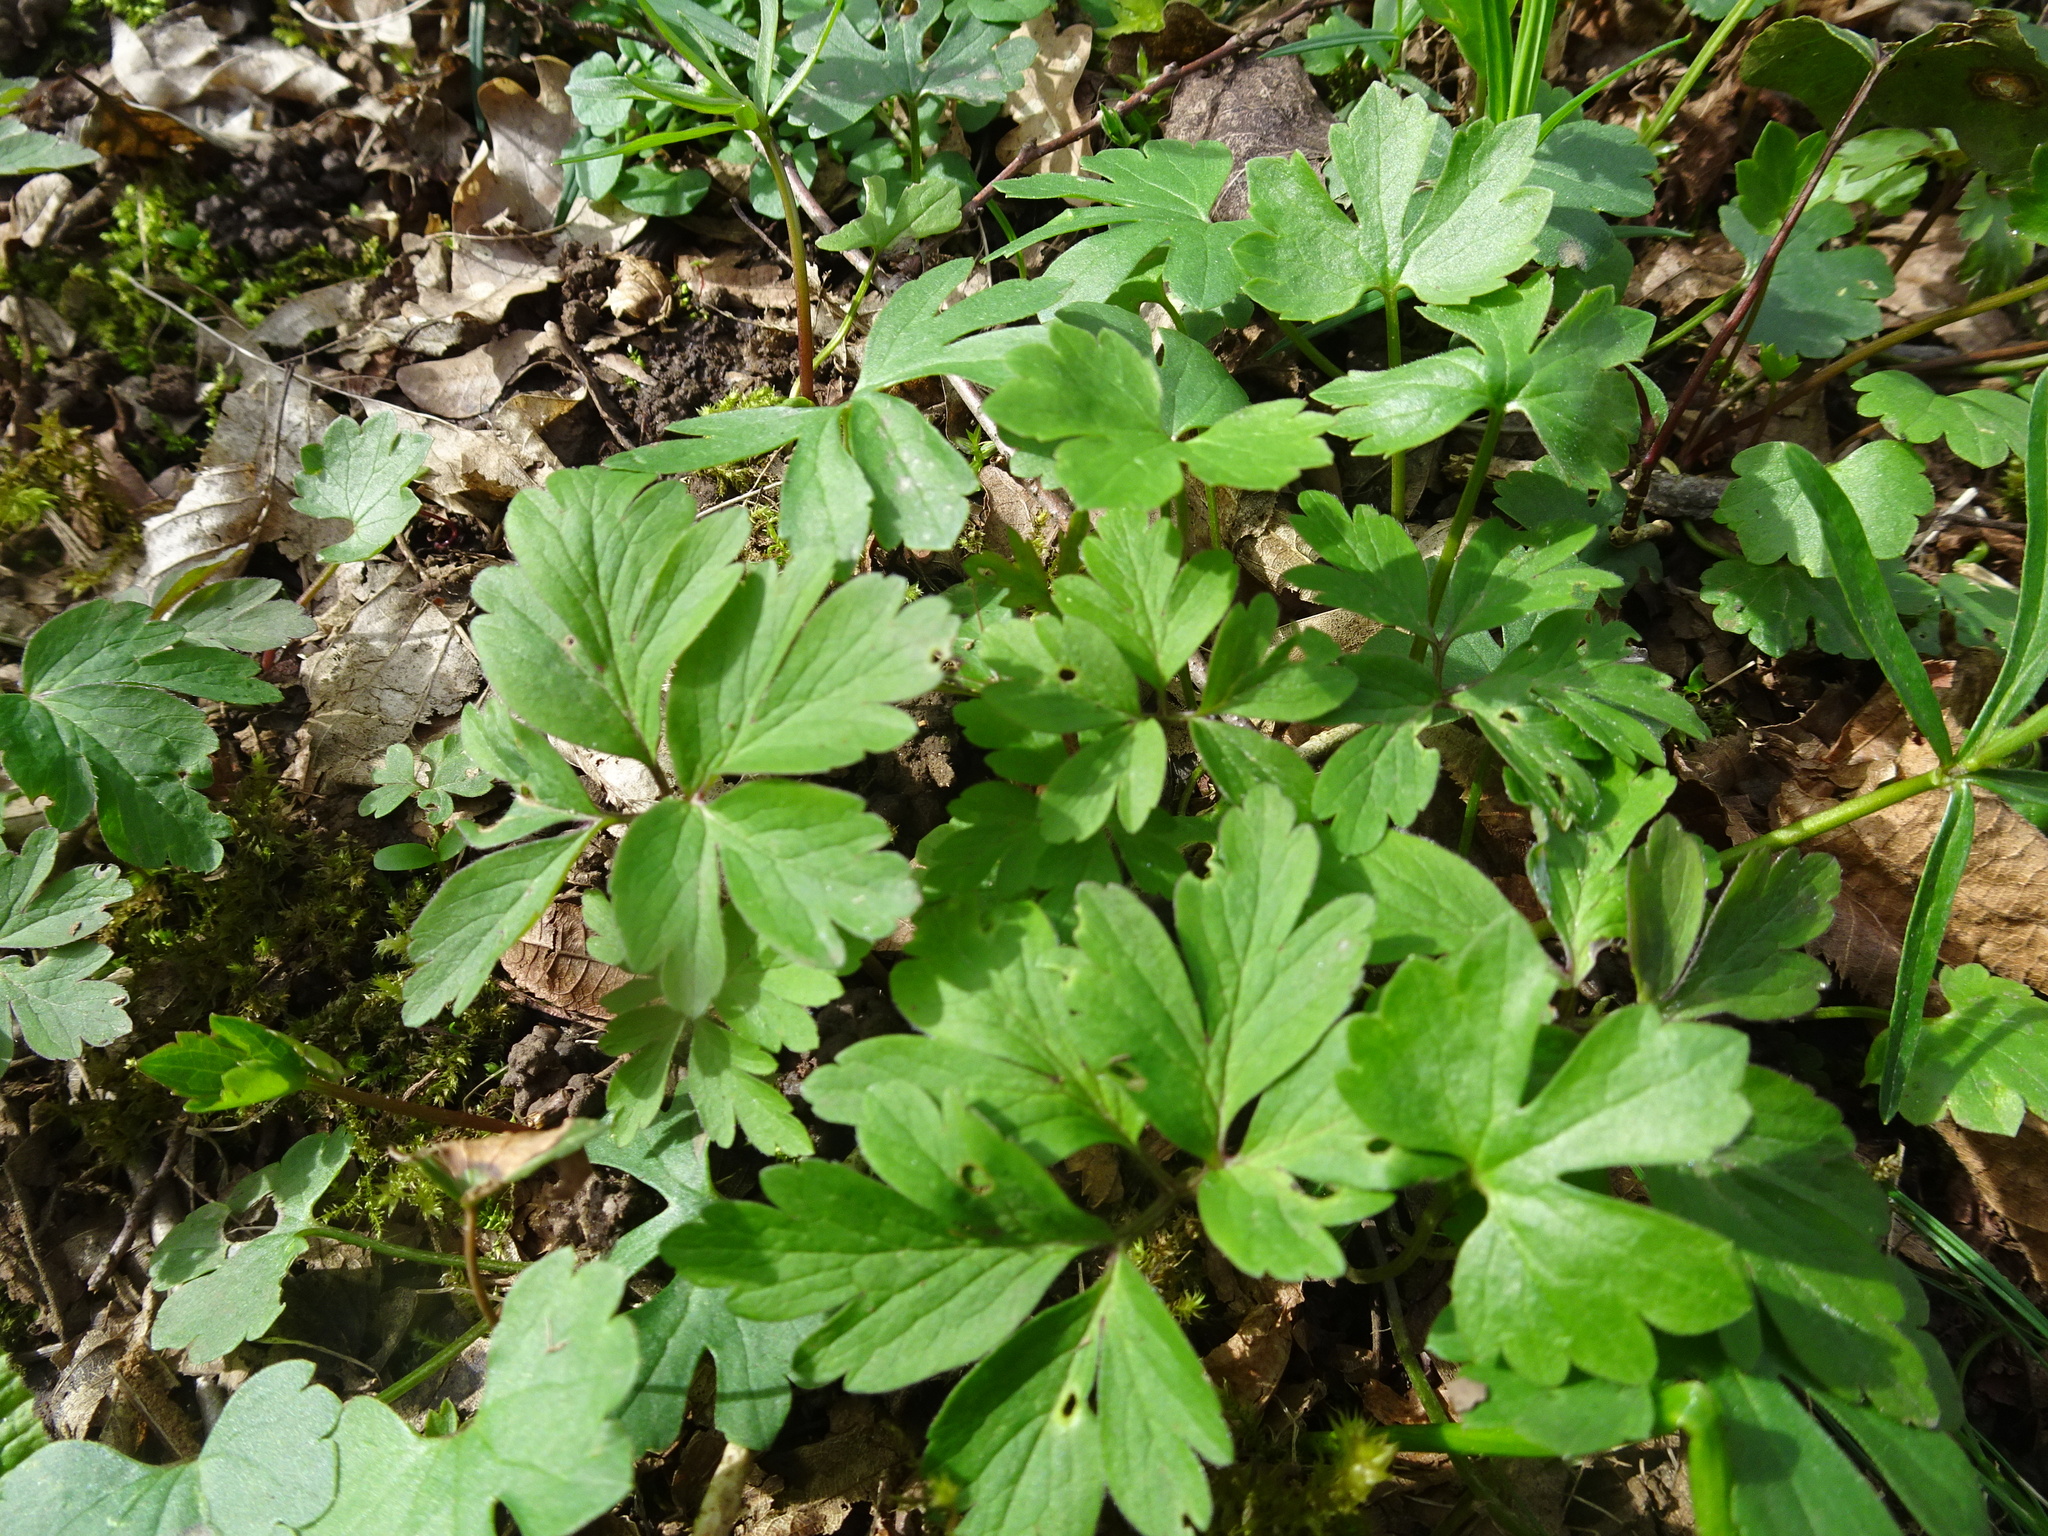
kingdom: Plantae
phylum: Tracheophyta
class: Magnoliopsida
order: Ranunculales
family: Ranunculaceae
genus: Anemone
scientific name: Anemone nemorosa
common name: Wood anemone
